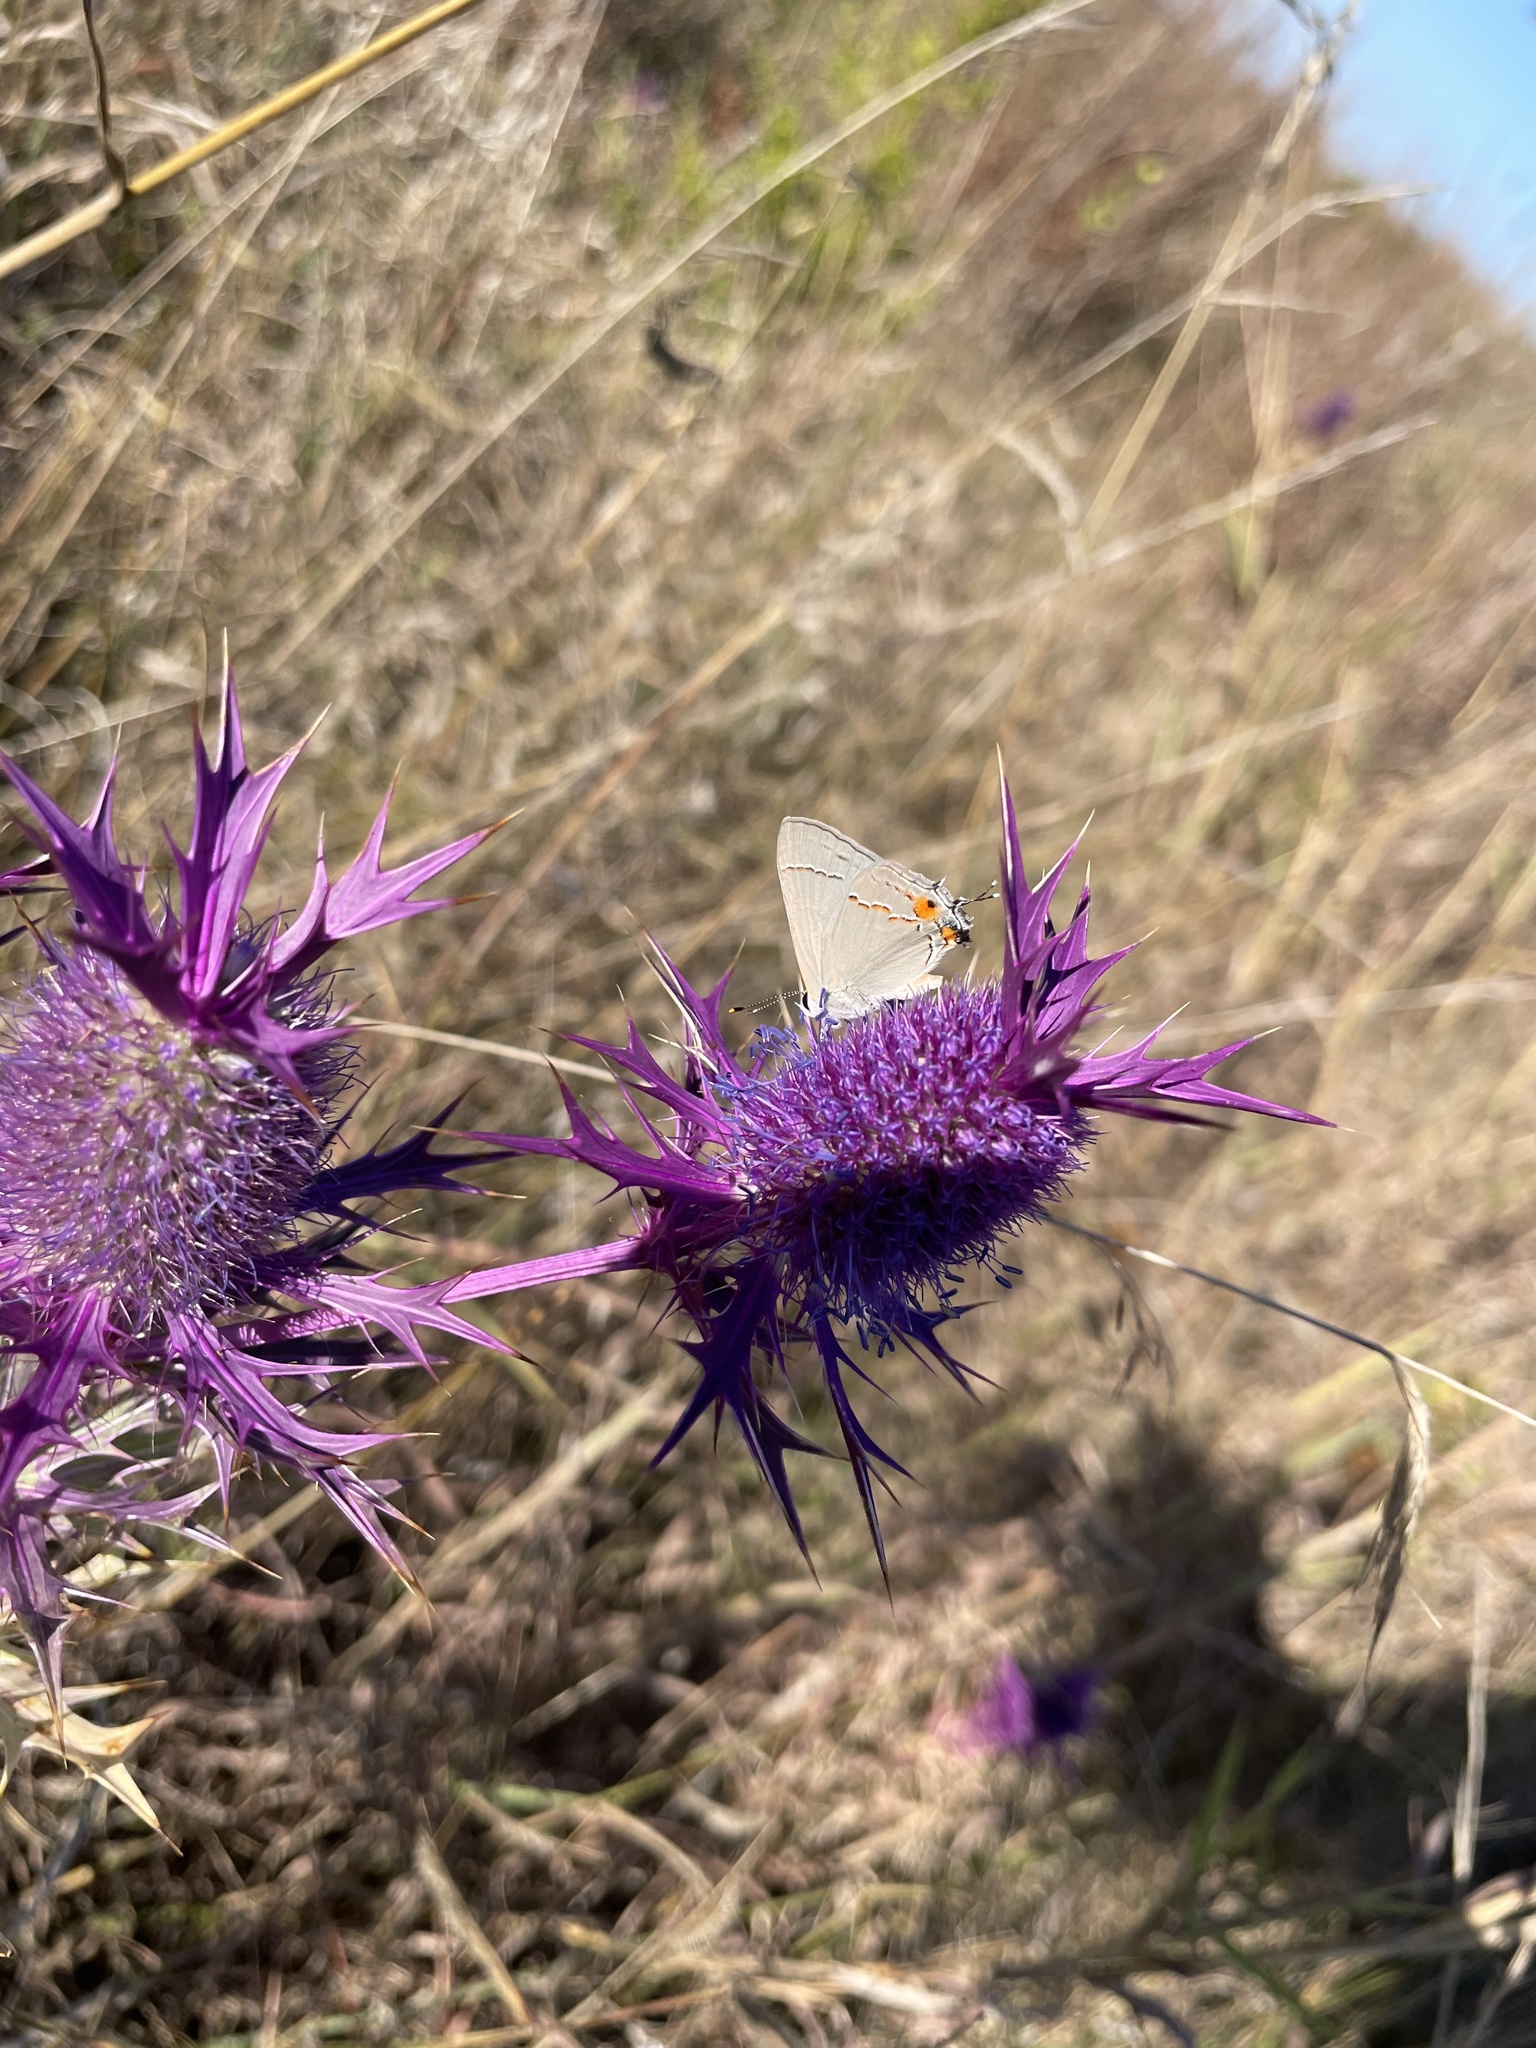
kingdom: Animalia
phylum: Arthropoda
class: Insecta
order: Lepidoptera
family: Lycaenidae
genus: Strymon
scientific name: Strymon melinus
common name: Gray hairstreak
